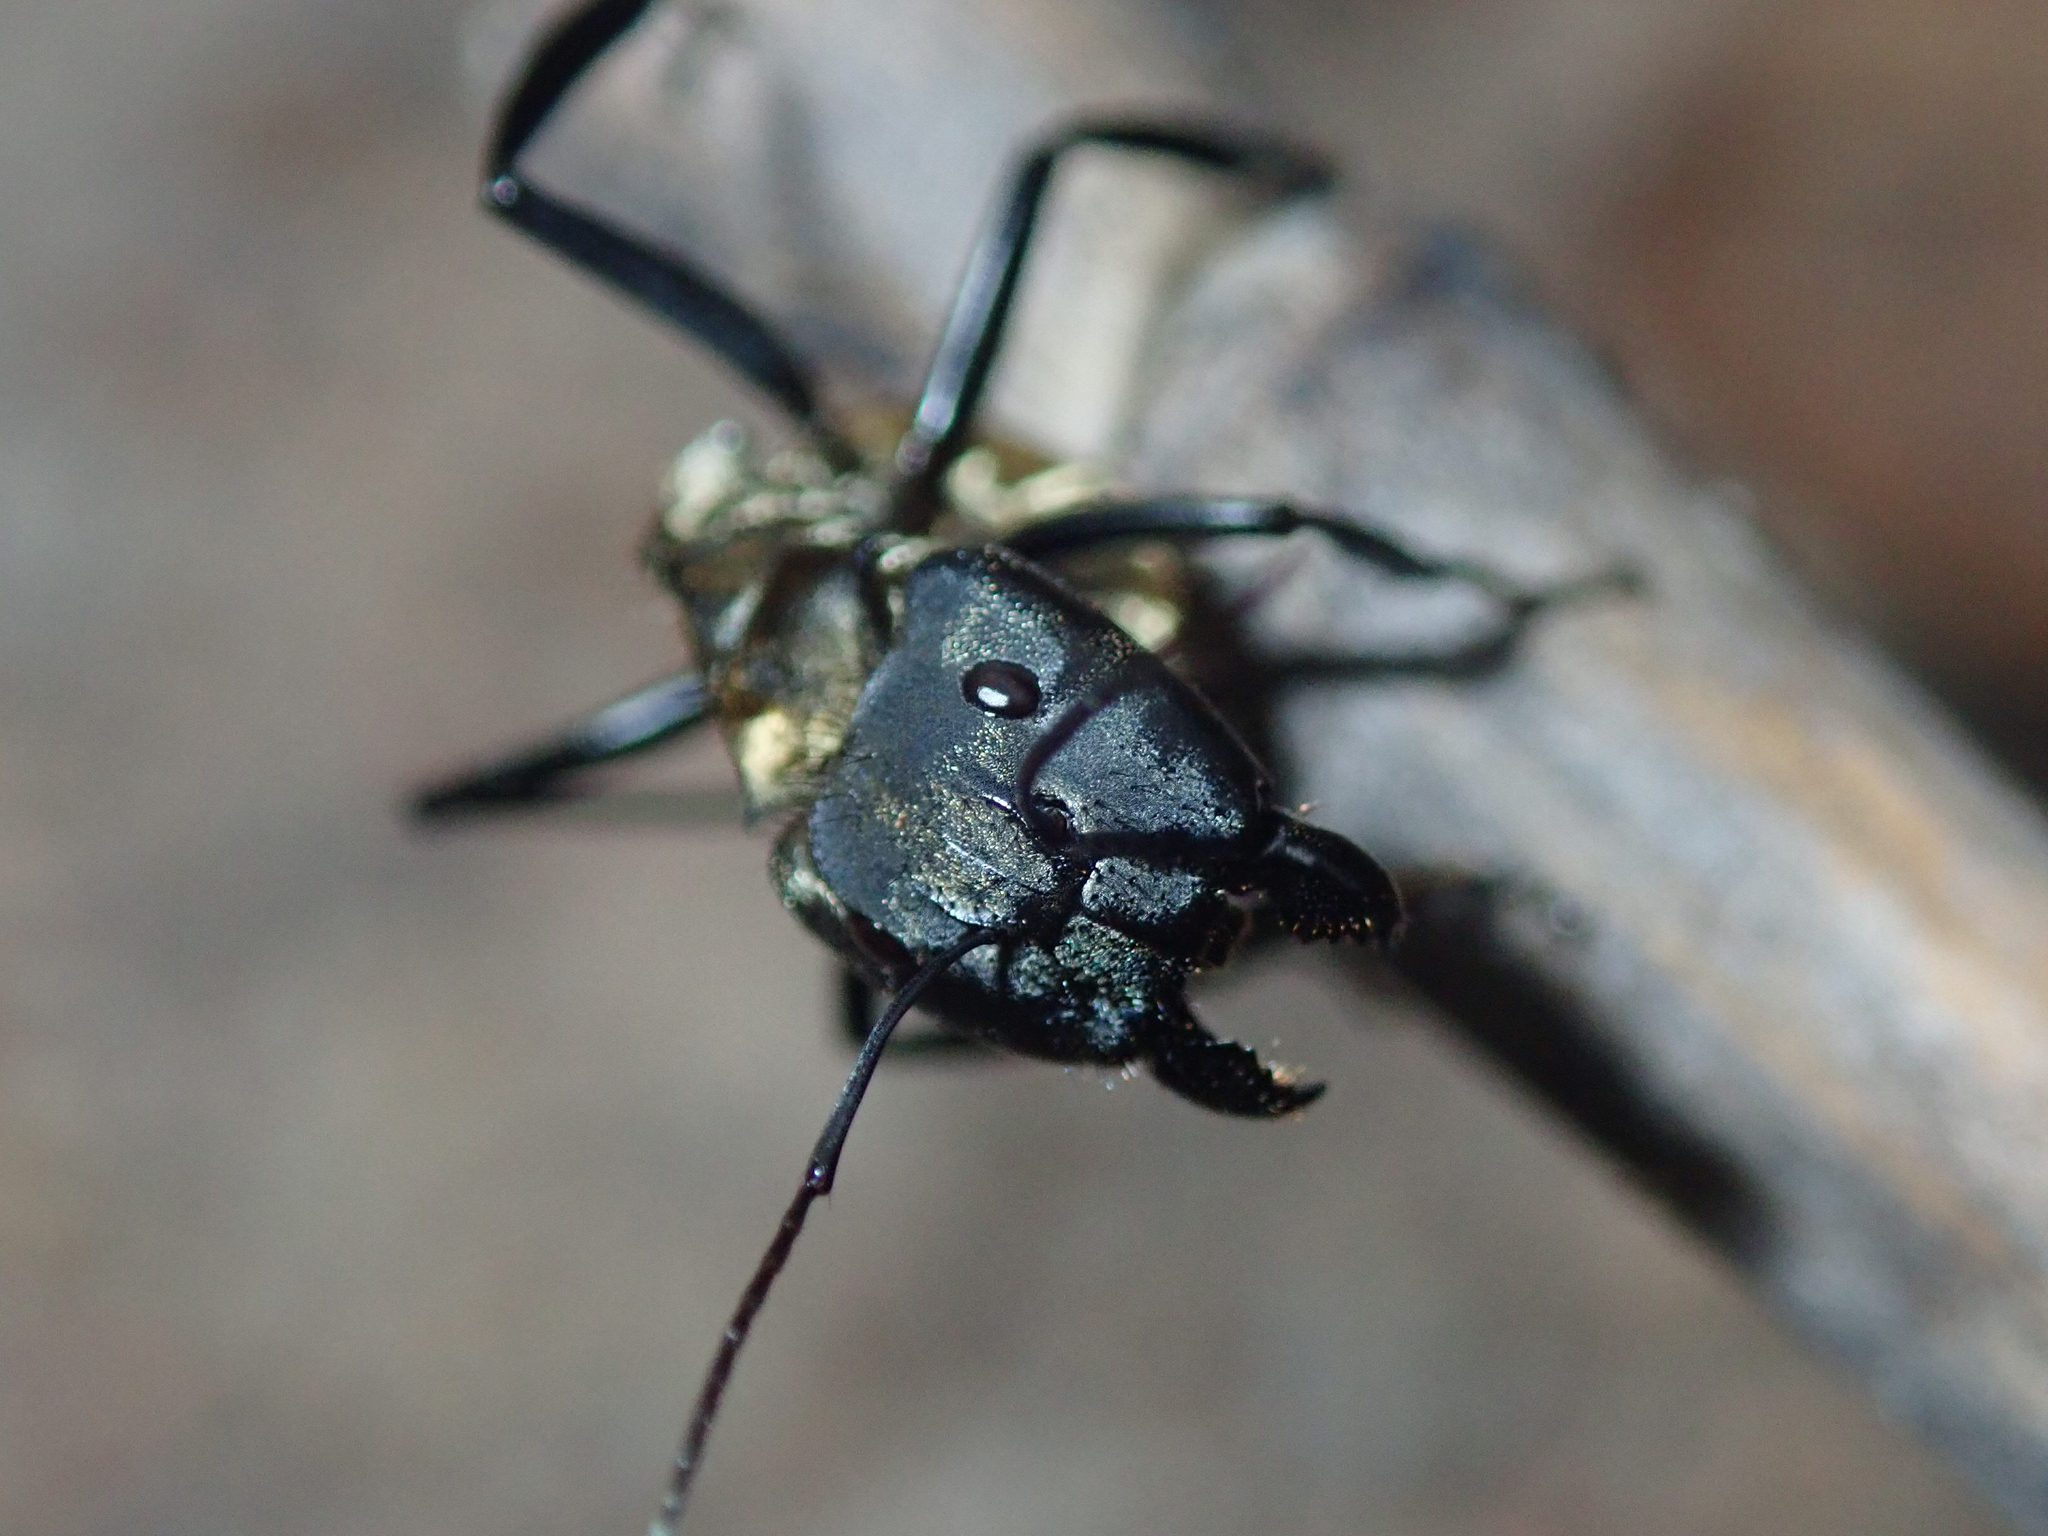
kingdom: Animalia
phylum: Arthropoda
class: Insecta
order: Hymenoptera
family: Formicidae
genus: Camponotus
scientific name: Camponotus sericeiventris
